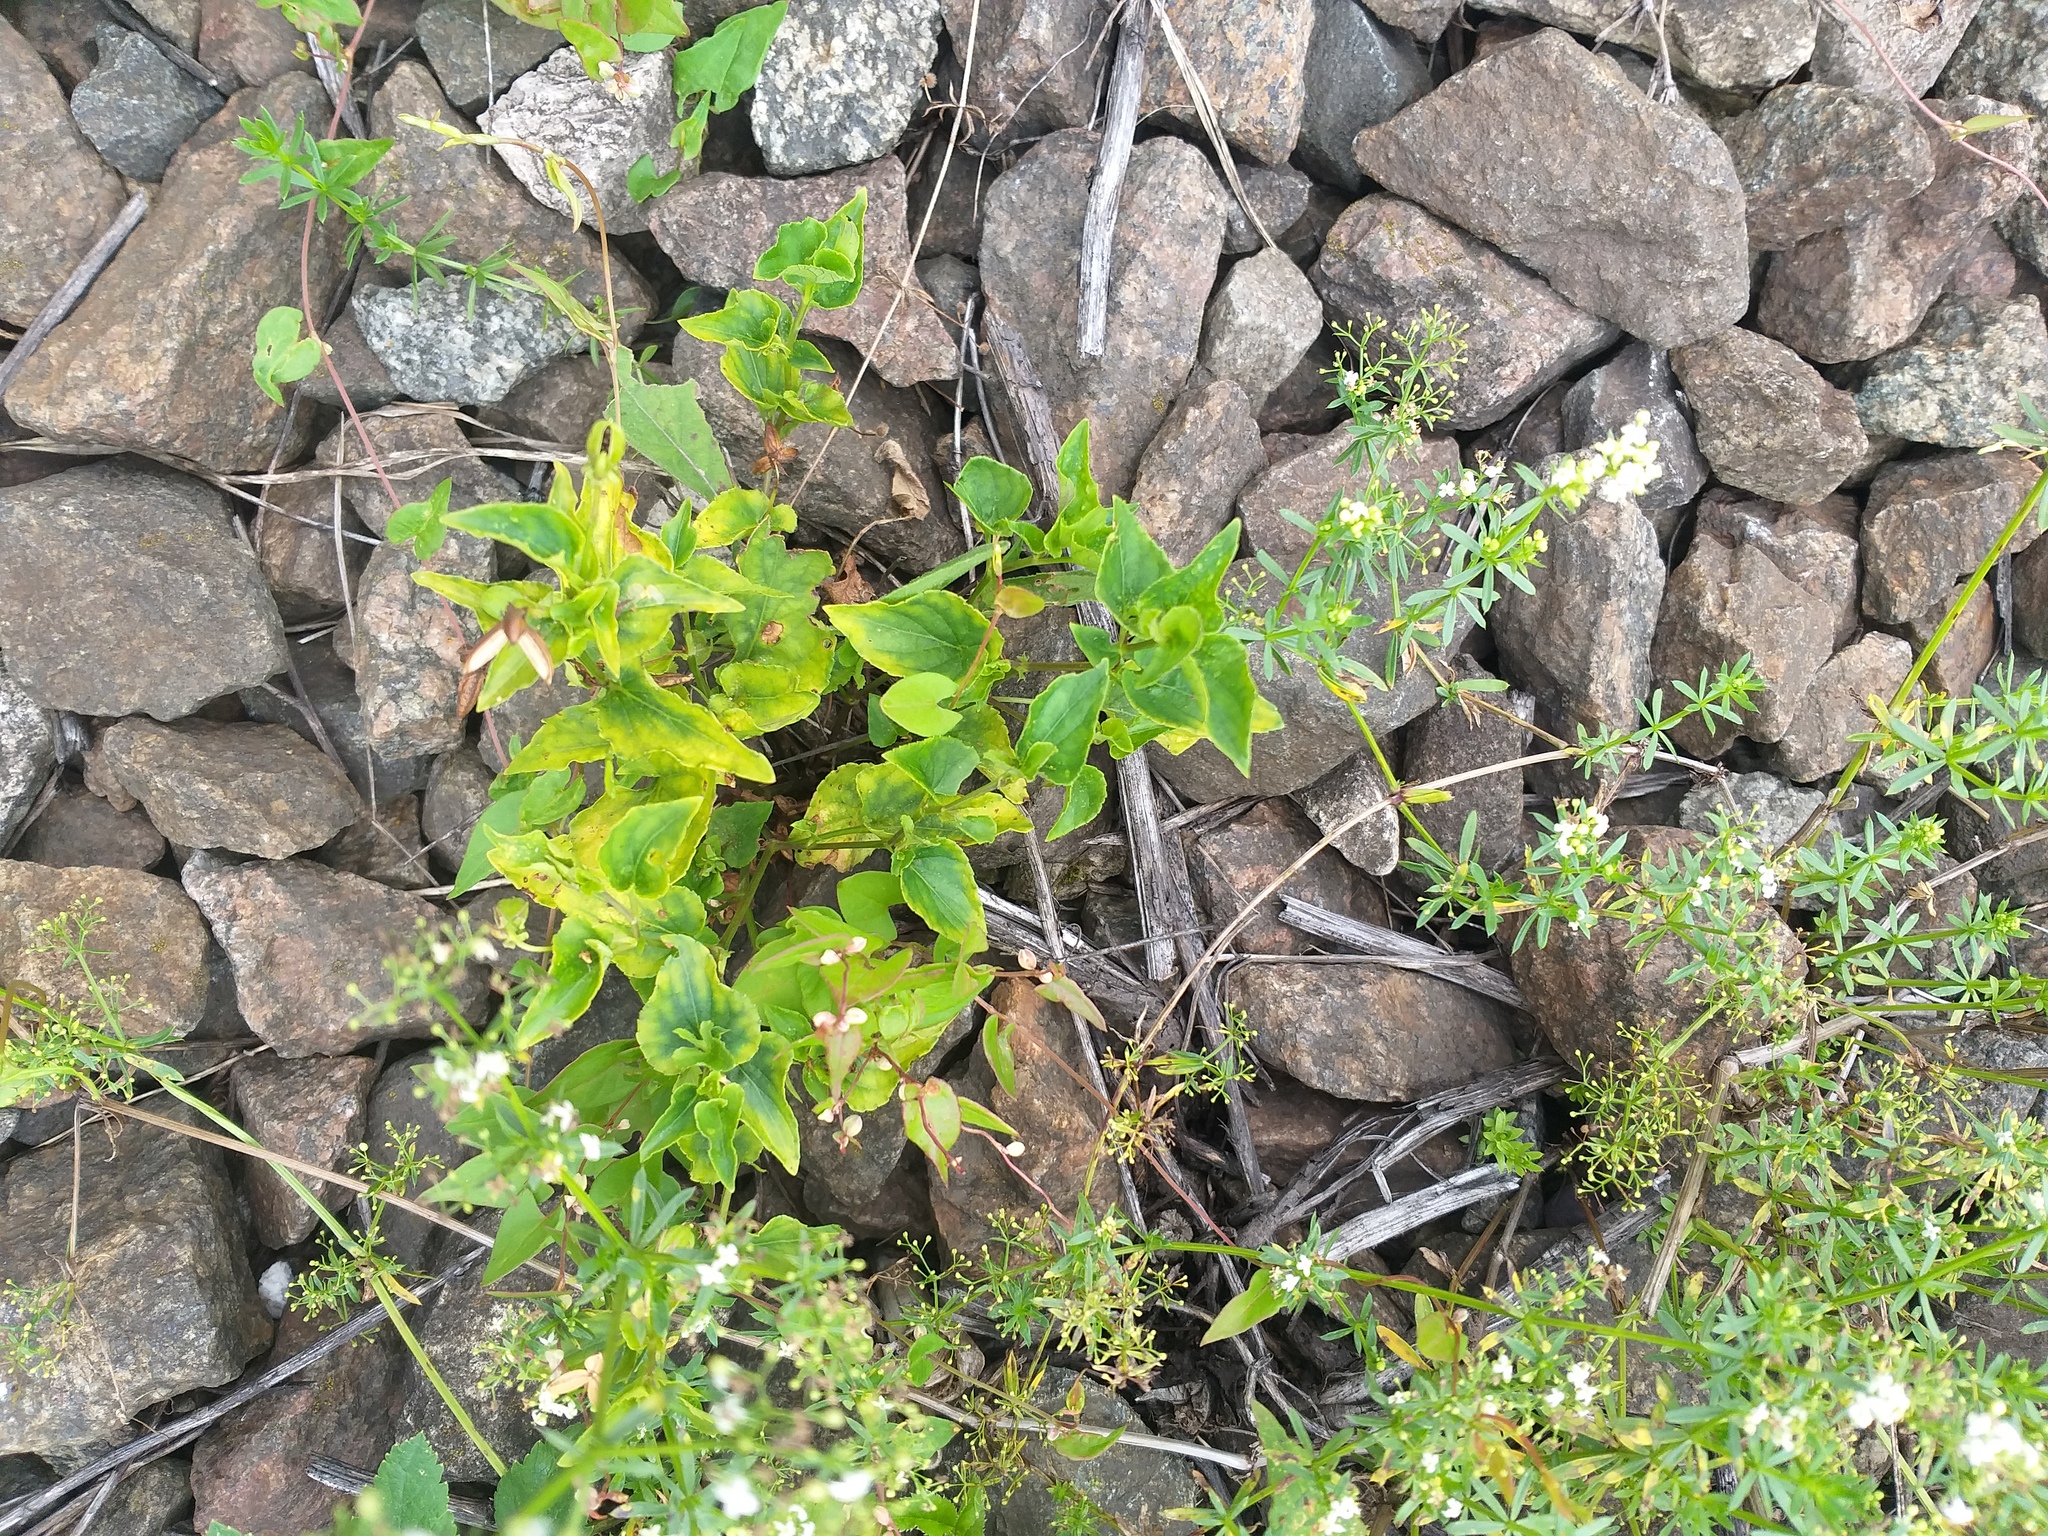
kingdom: Plantae
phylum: Tracheophyta
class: Magnoliopsida
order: Malpighiales
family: Violaceae
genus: Viola
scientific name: Viola canina
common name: Heath dog-violet
